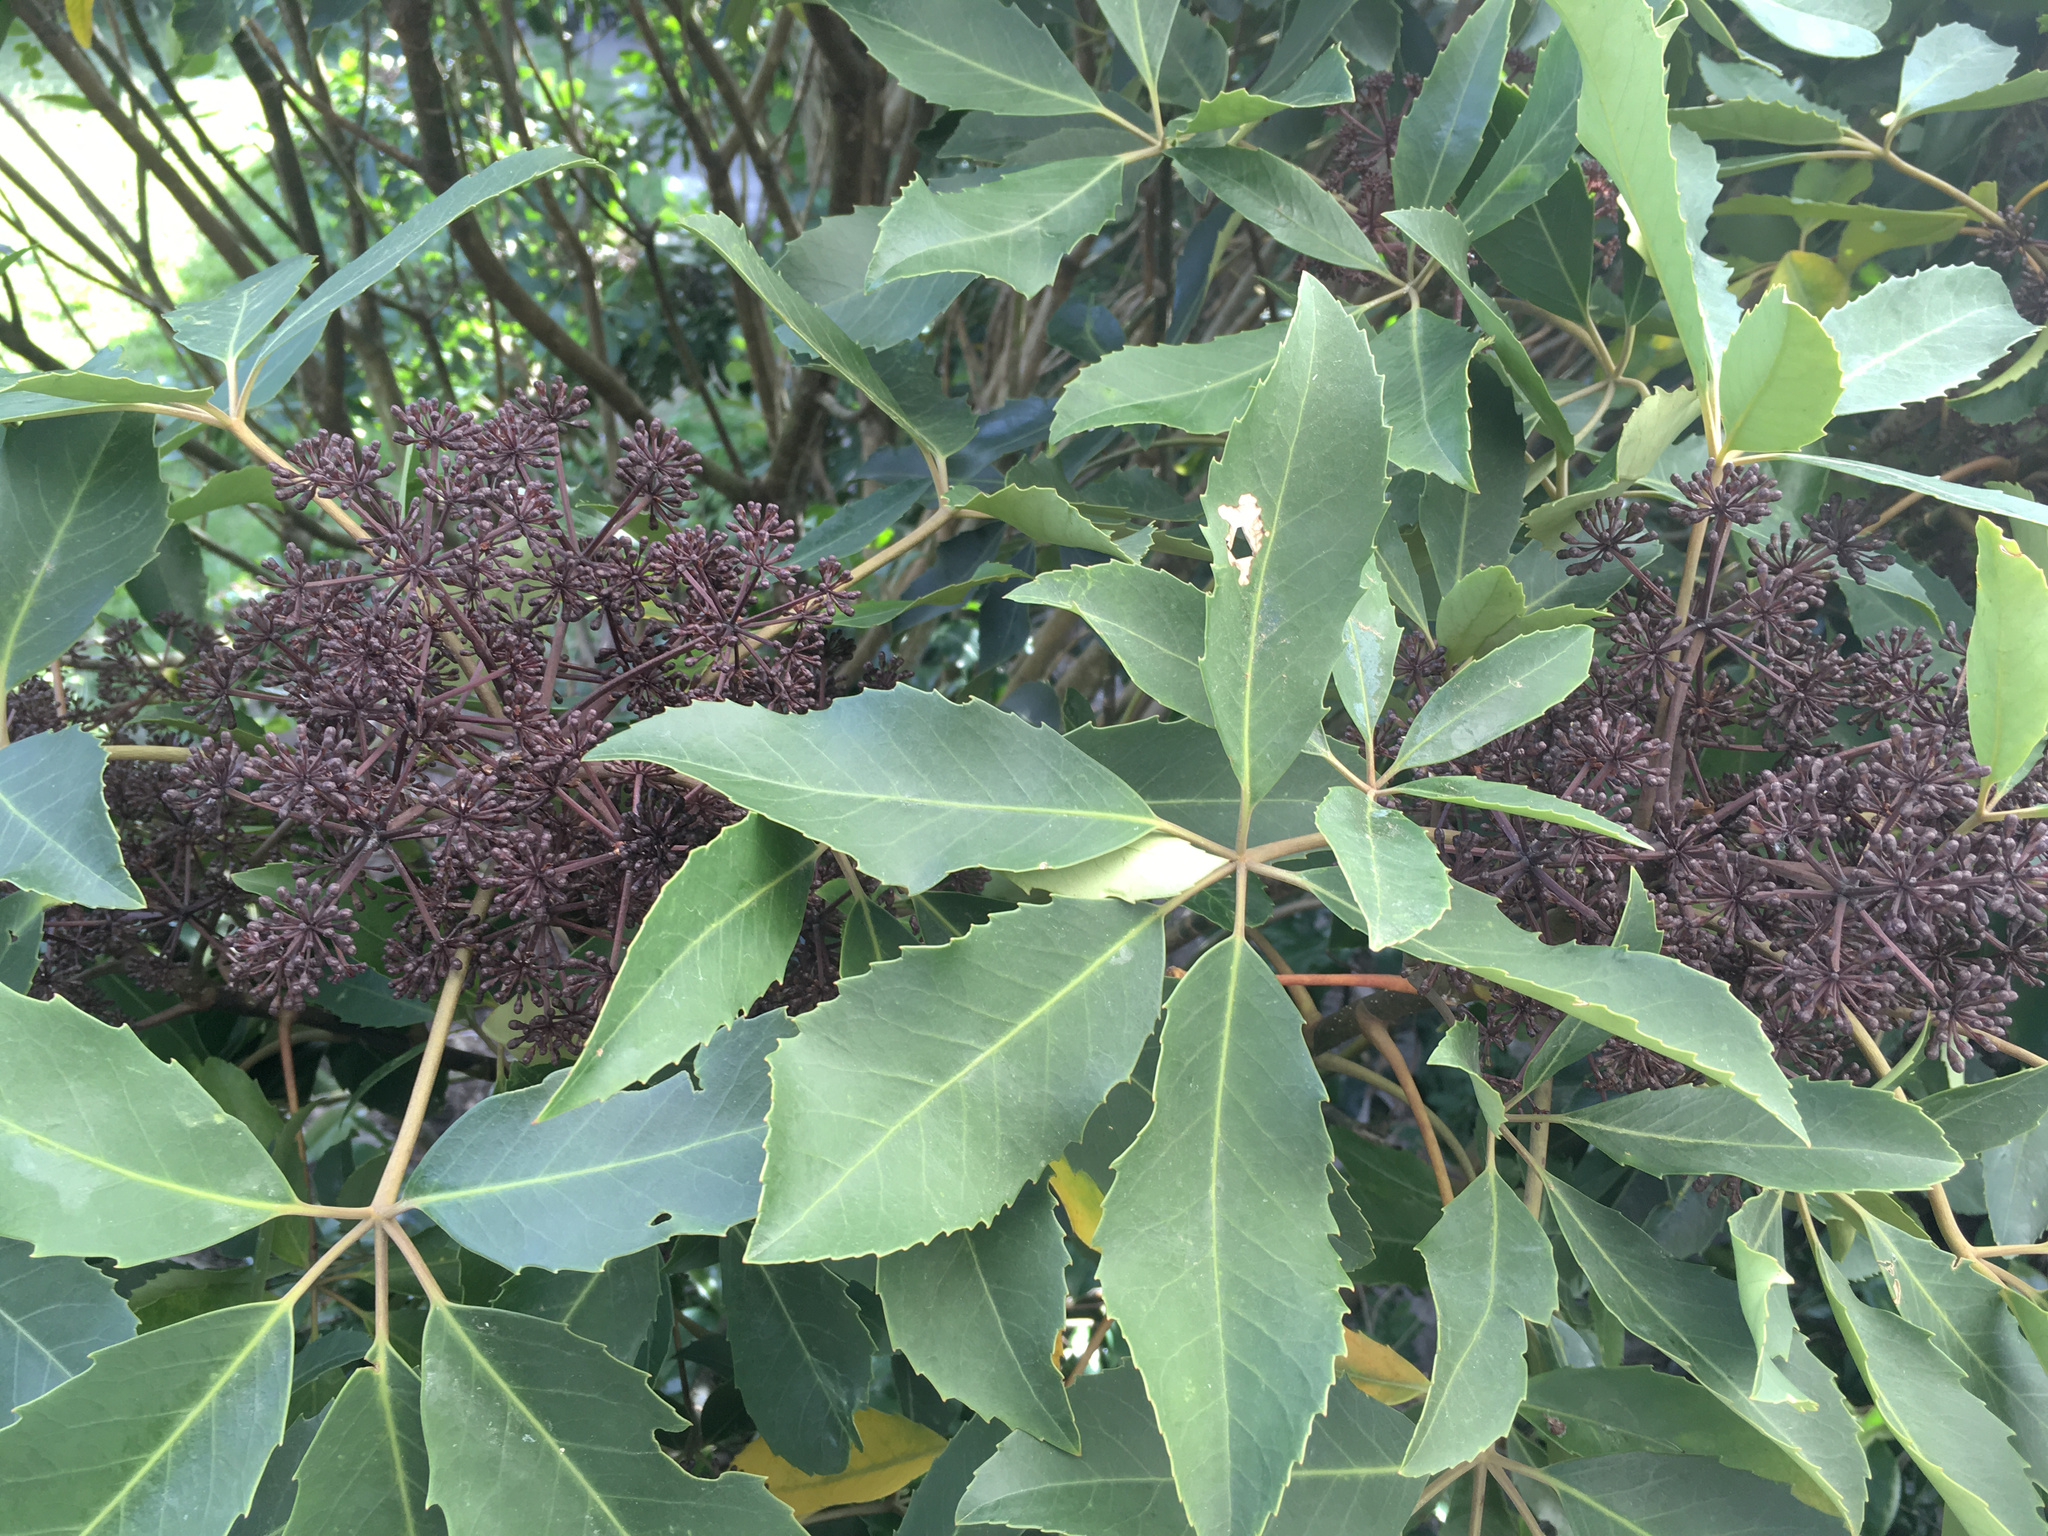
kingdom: Plantae
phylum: Tracheophyta
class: Magnoliopsida
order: Apiales
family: Araliaceae
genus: Neopanax
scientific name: Neopanax arboreus
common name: Five-fingers
